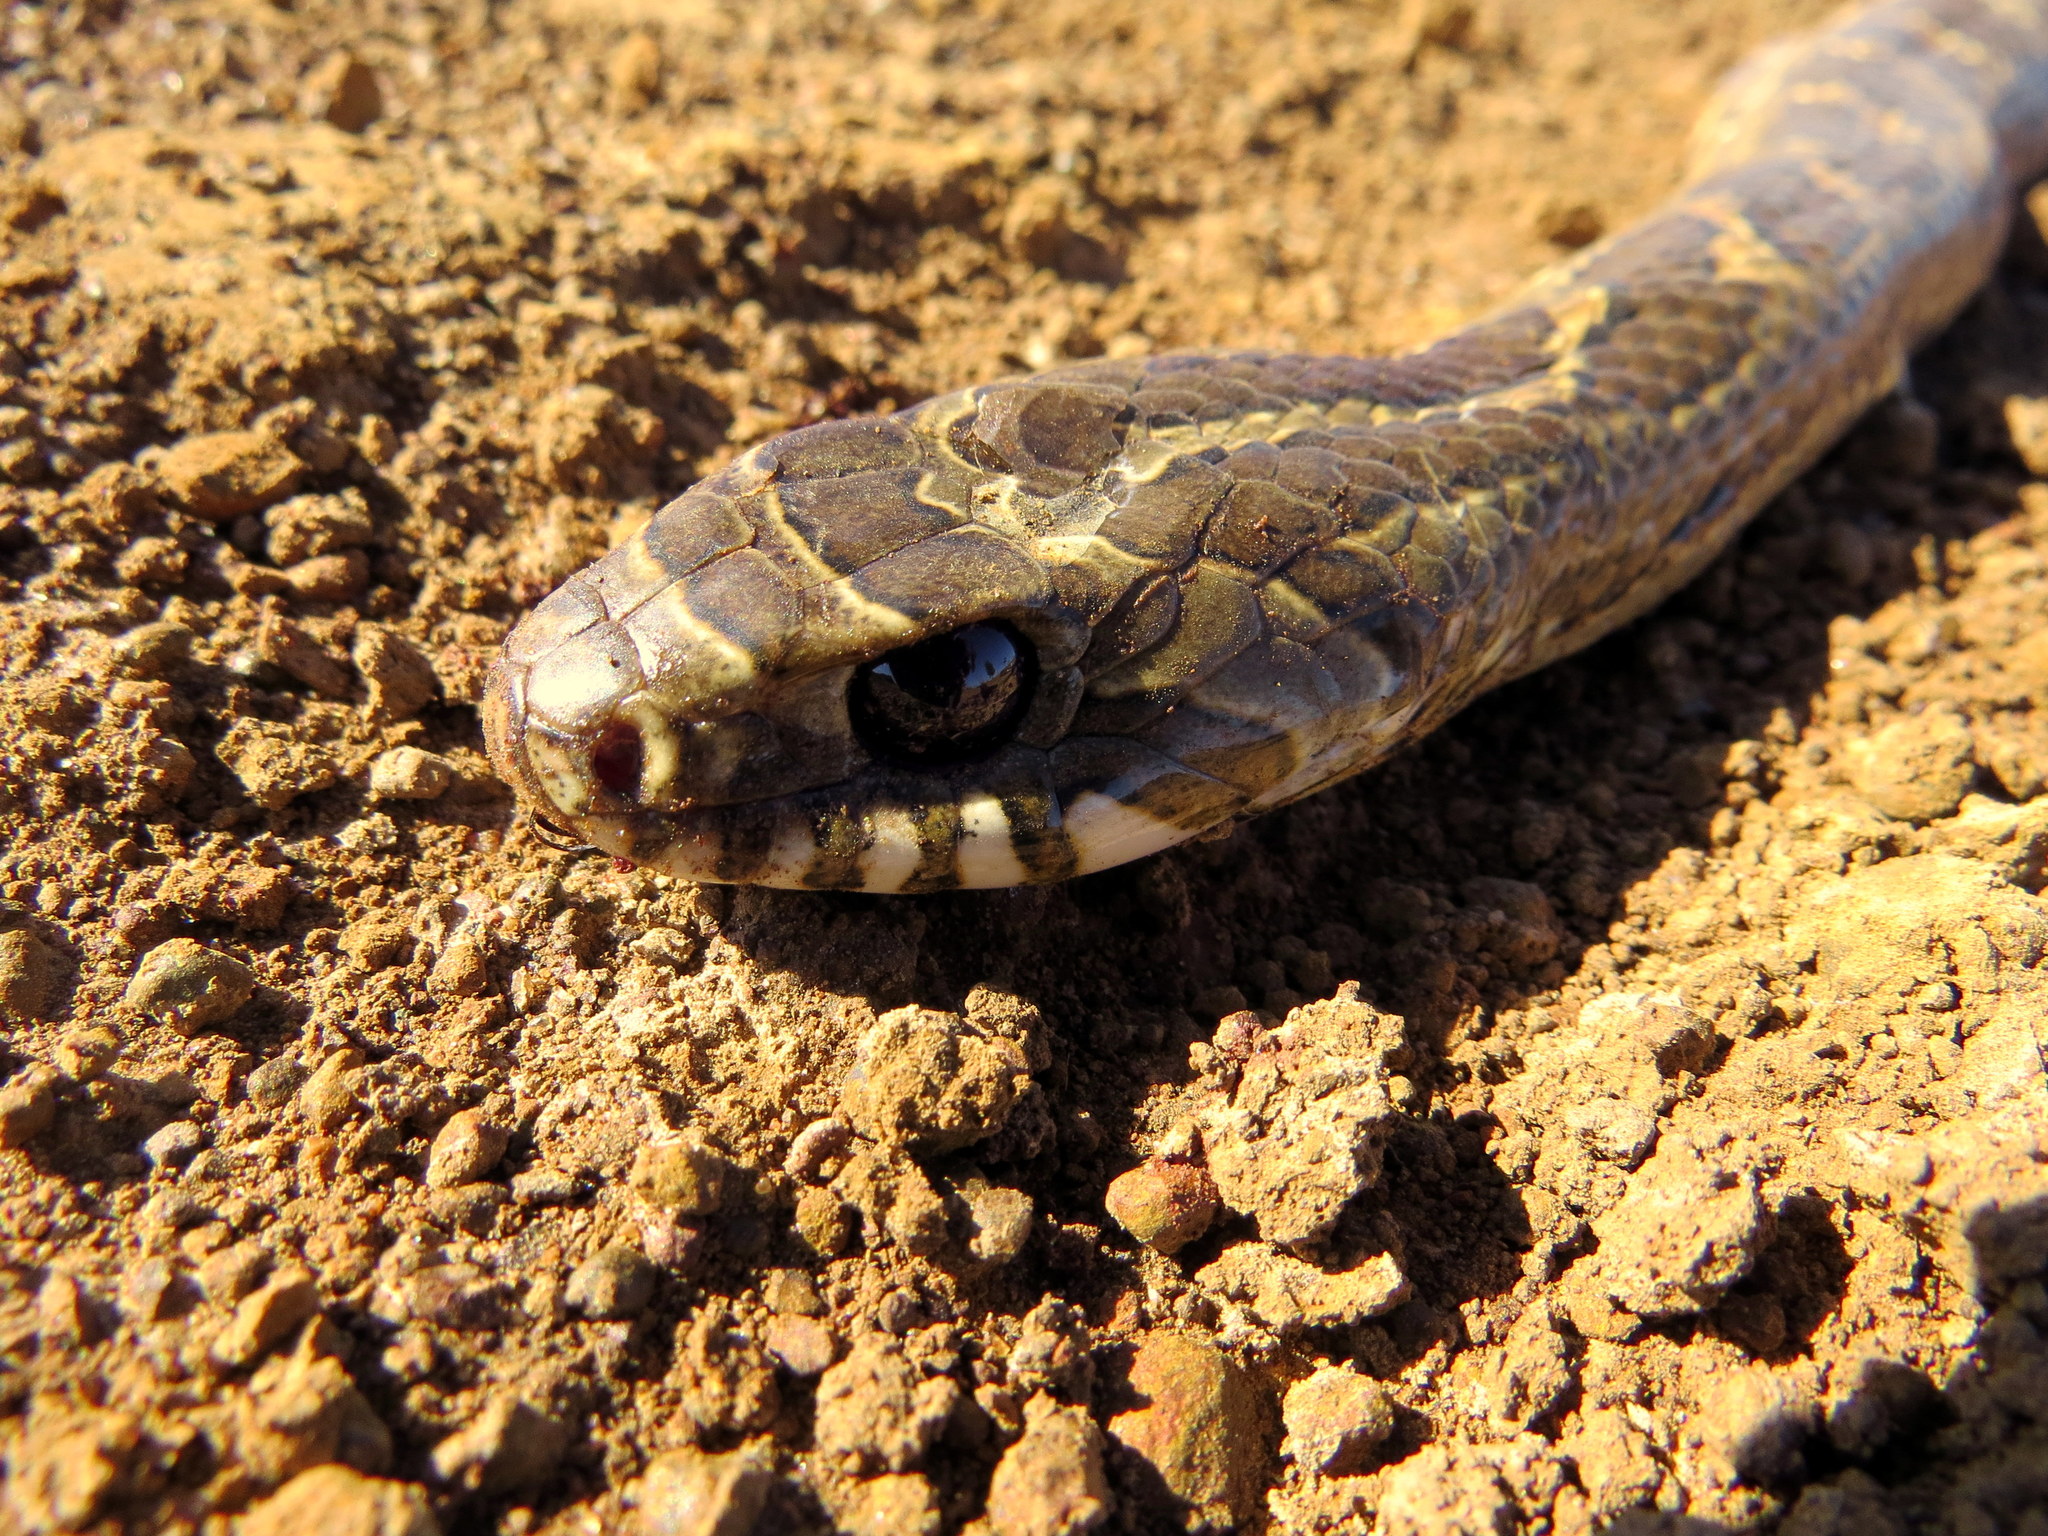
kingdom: Animalia
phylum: Chordata
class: Squamata
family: Colubridae
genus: Palusophis
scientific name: Palusophis bifossatus
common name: Rio tropical racer
